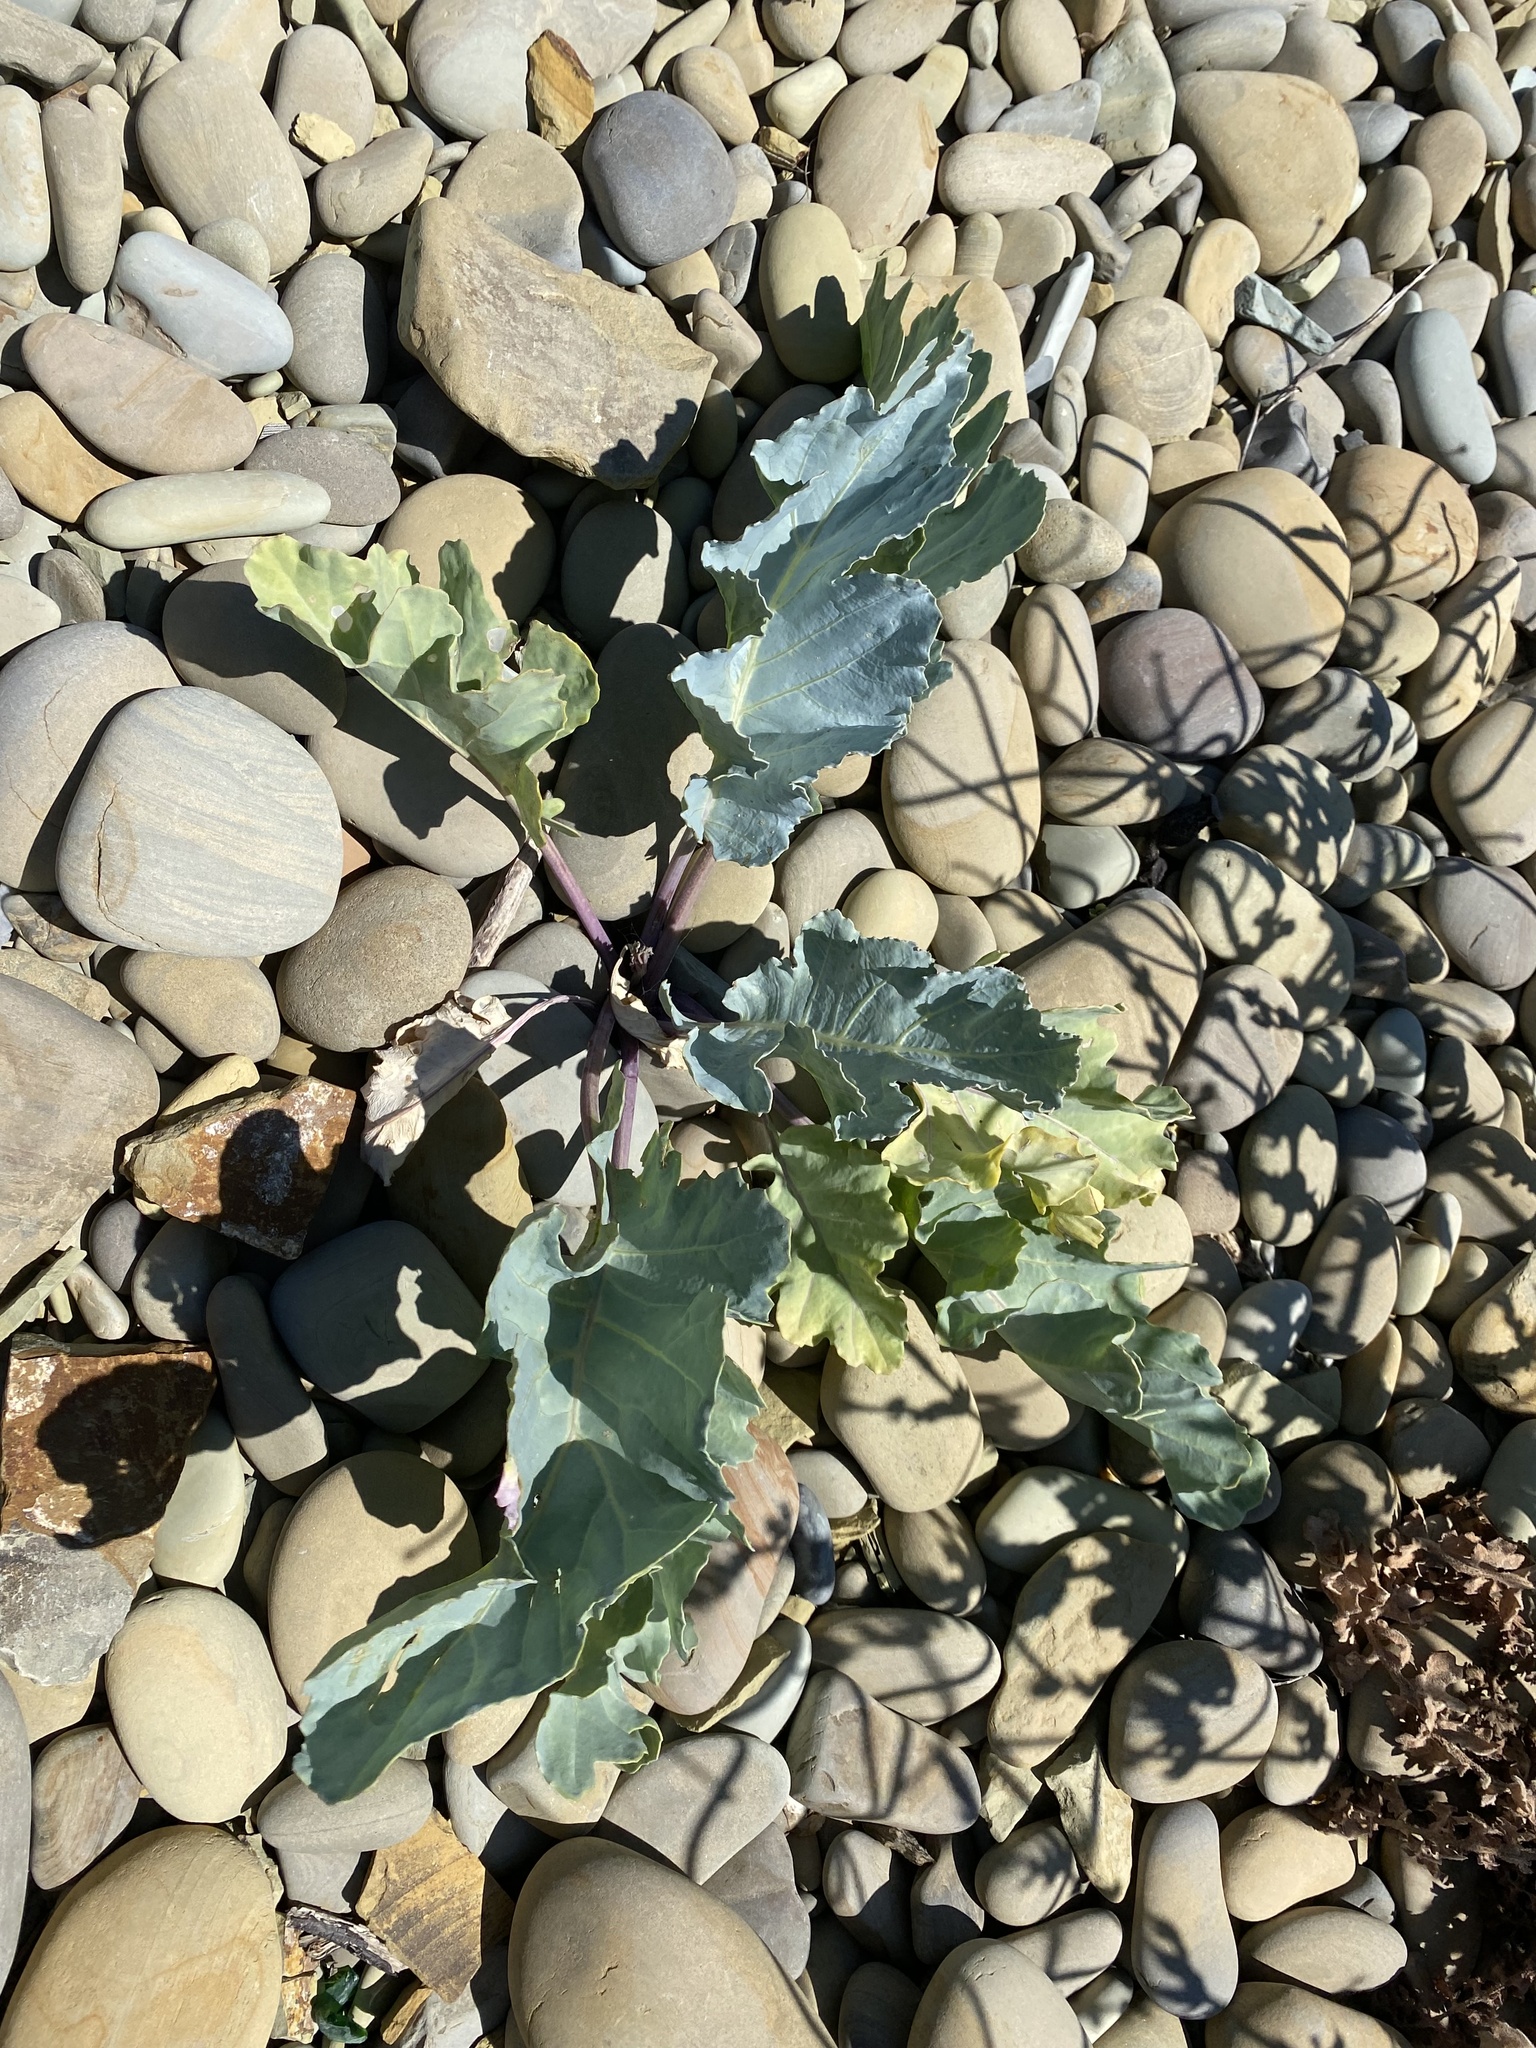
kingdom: Plantae
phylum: Tracheophyta
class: Magnoliopsida
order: Brassicales
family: Brassicaceae
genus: Crambe
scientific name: Crambe maritima
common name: Sea-kale
